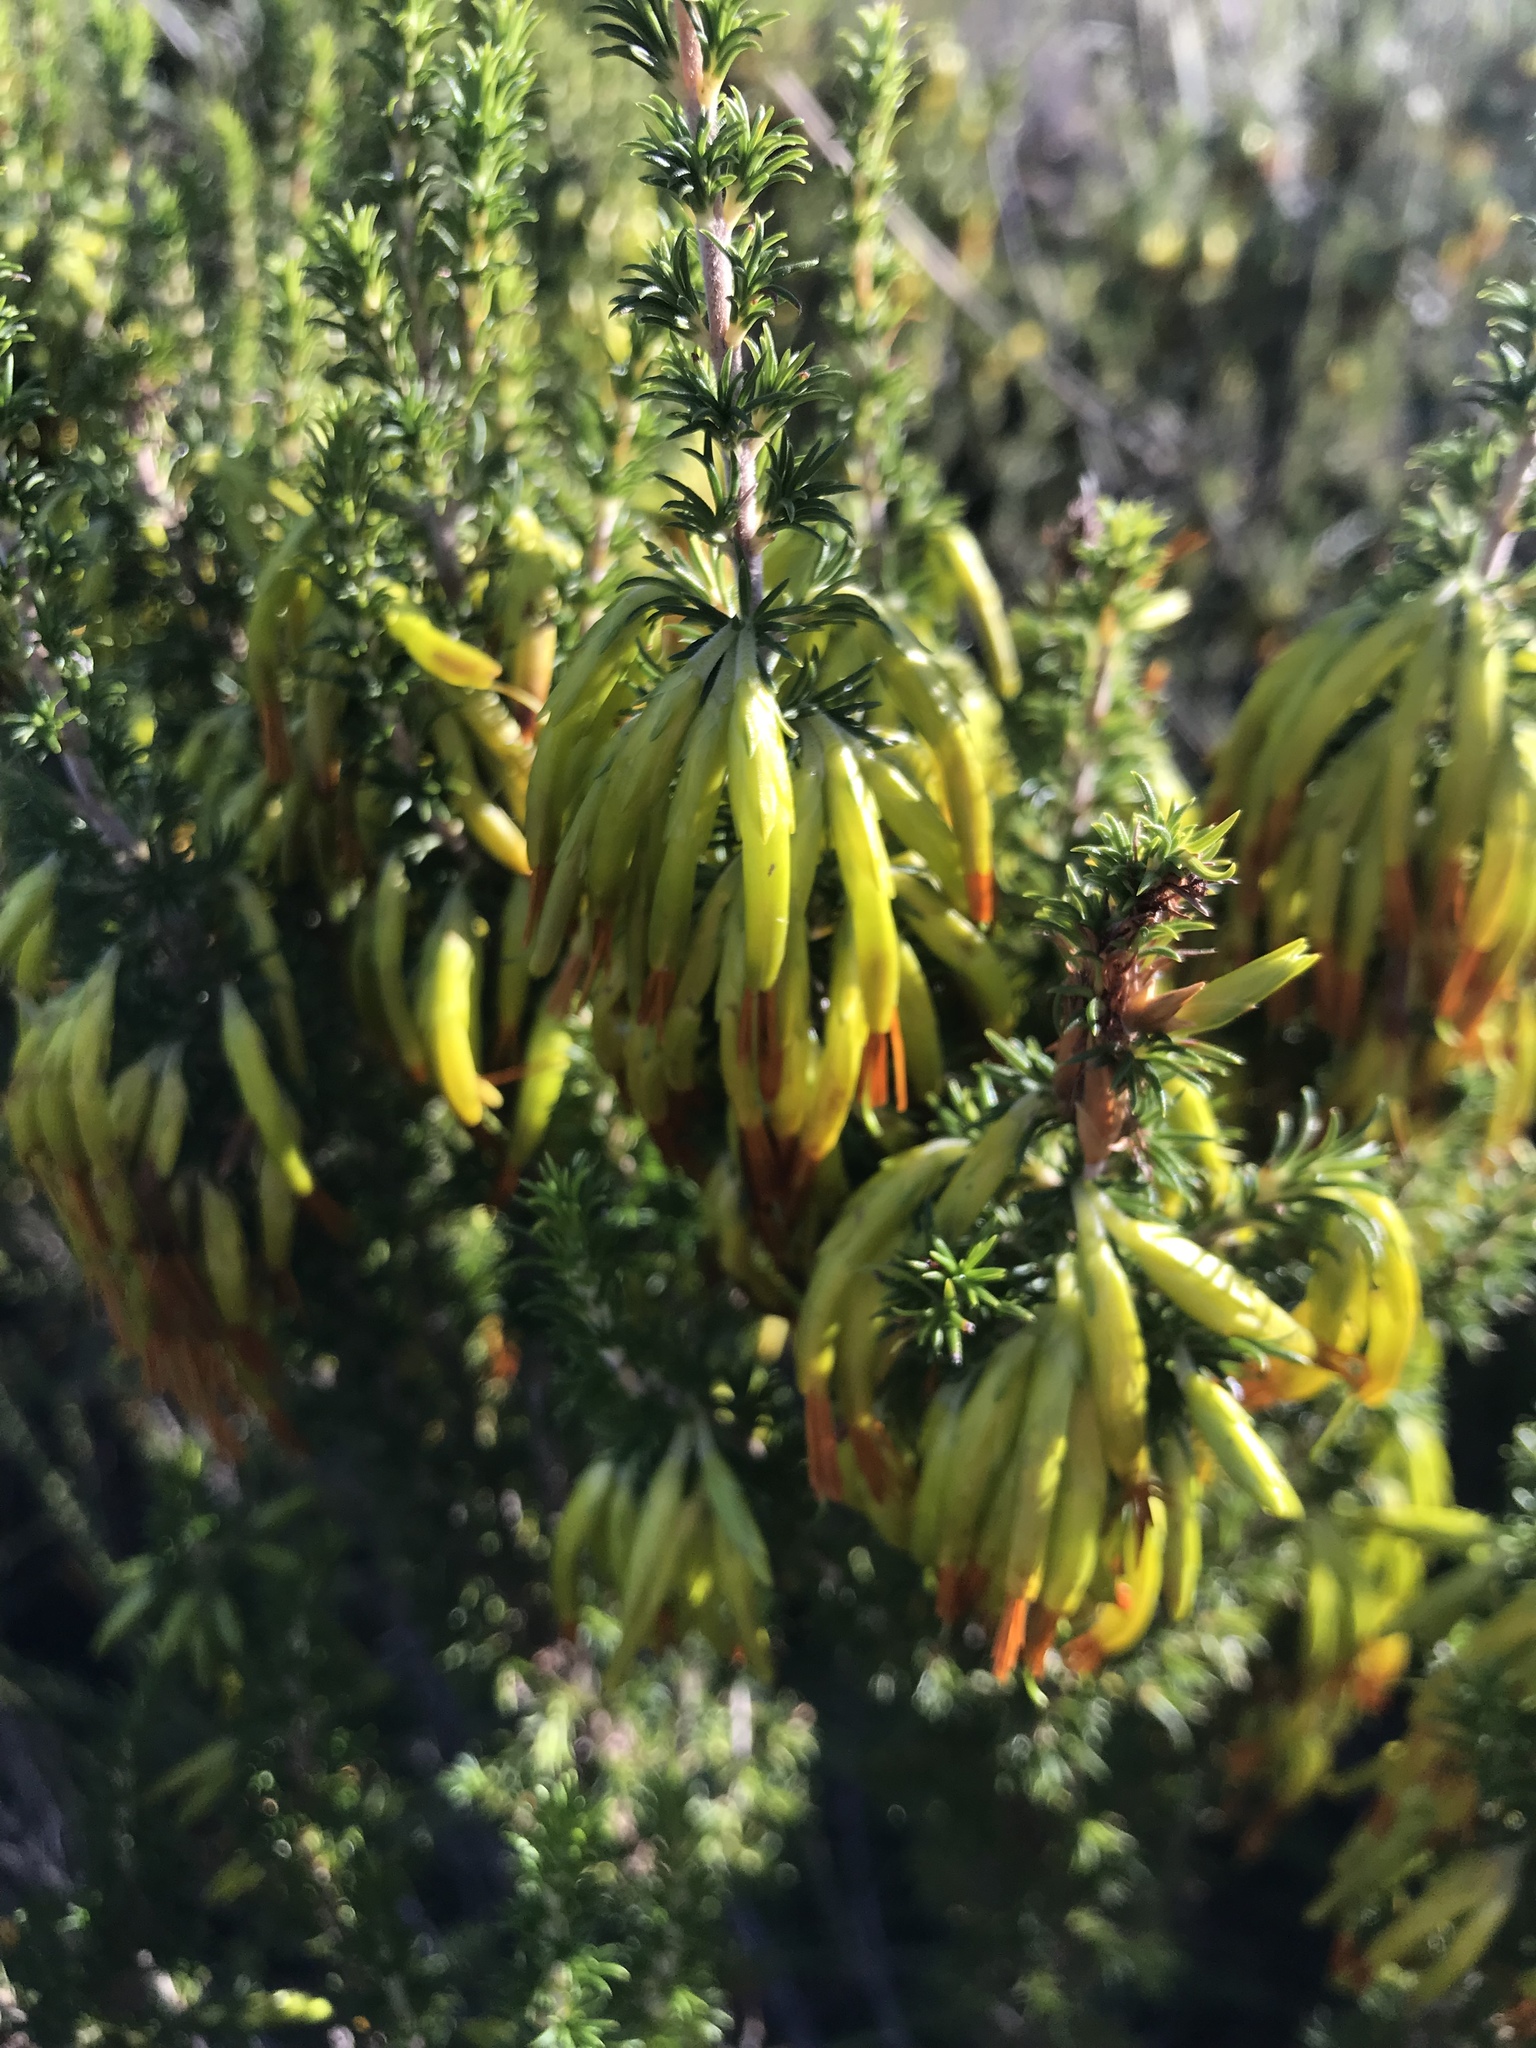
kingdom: Plantae
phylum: Tracheophyta
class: Magnoliopsida
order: Ericales
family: Ericaceae
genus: Erica
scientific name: Erica coccinea
